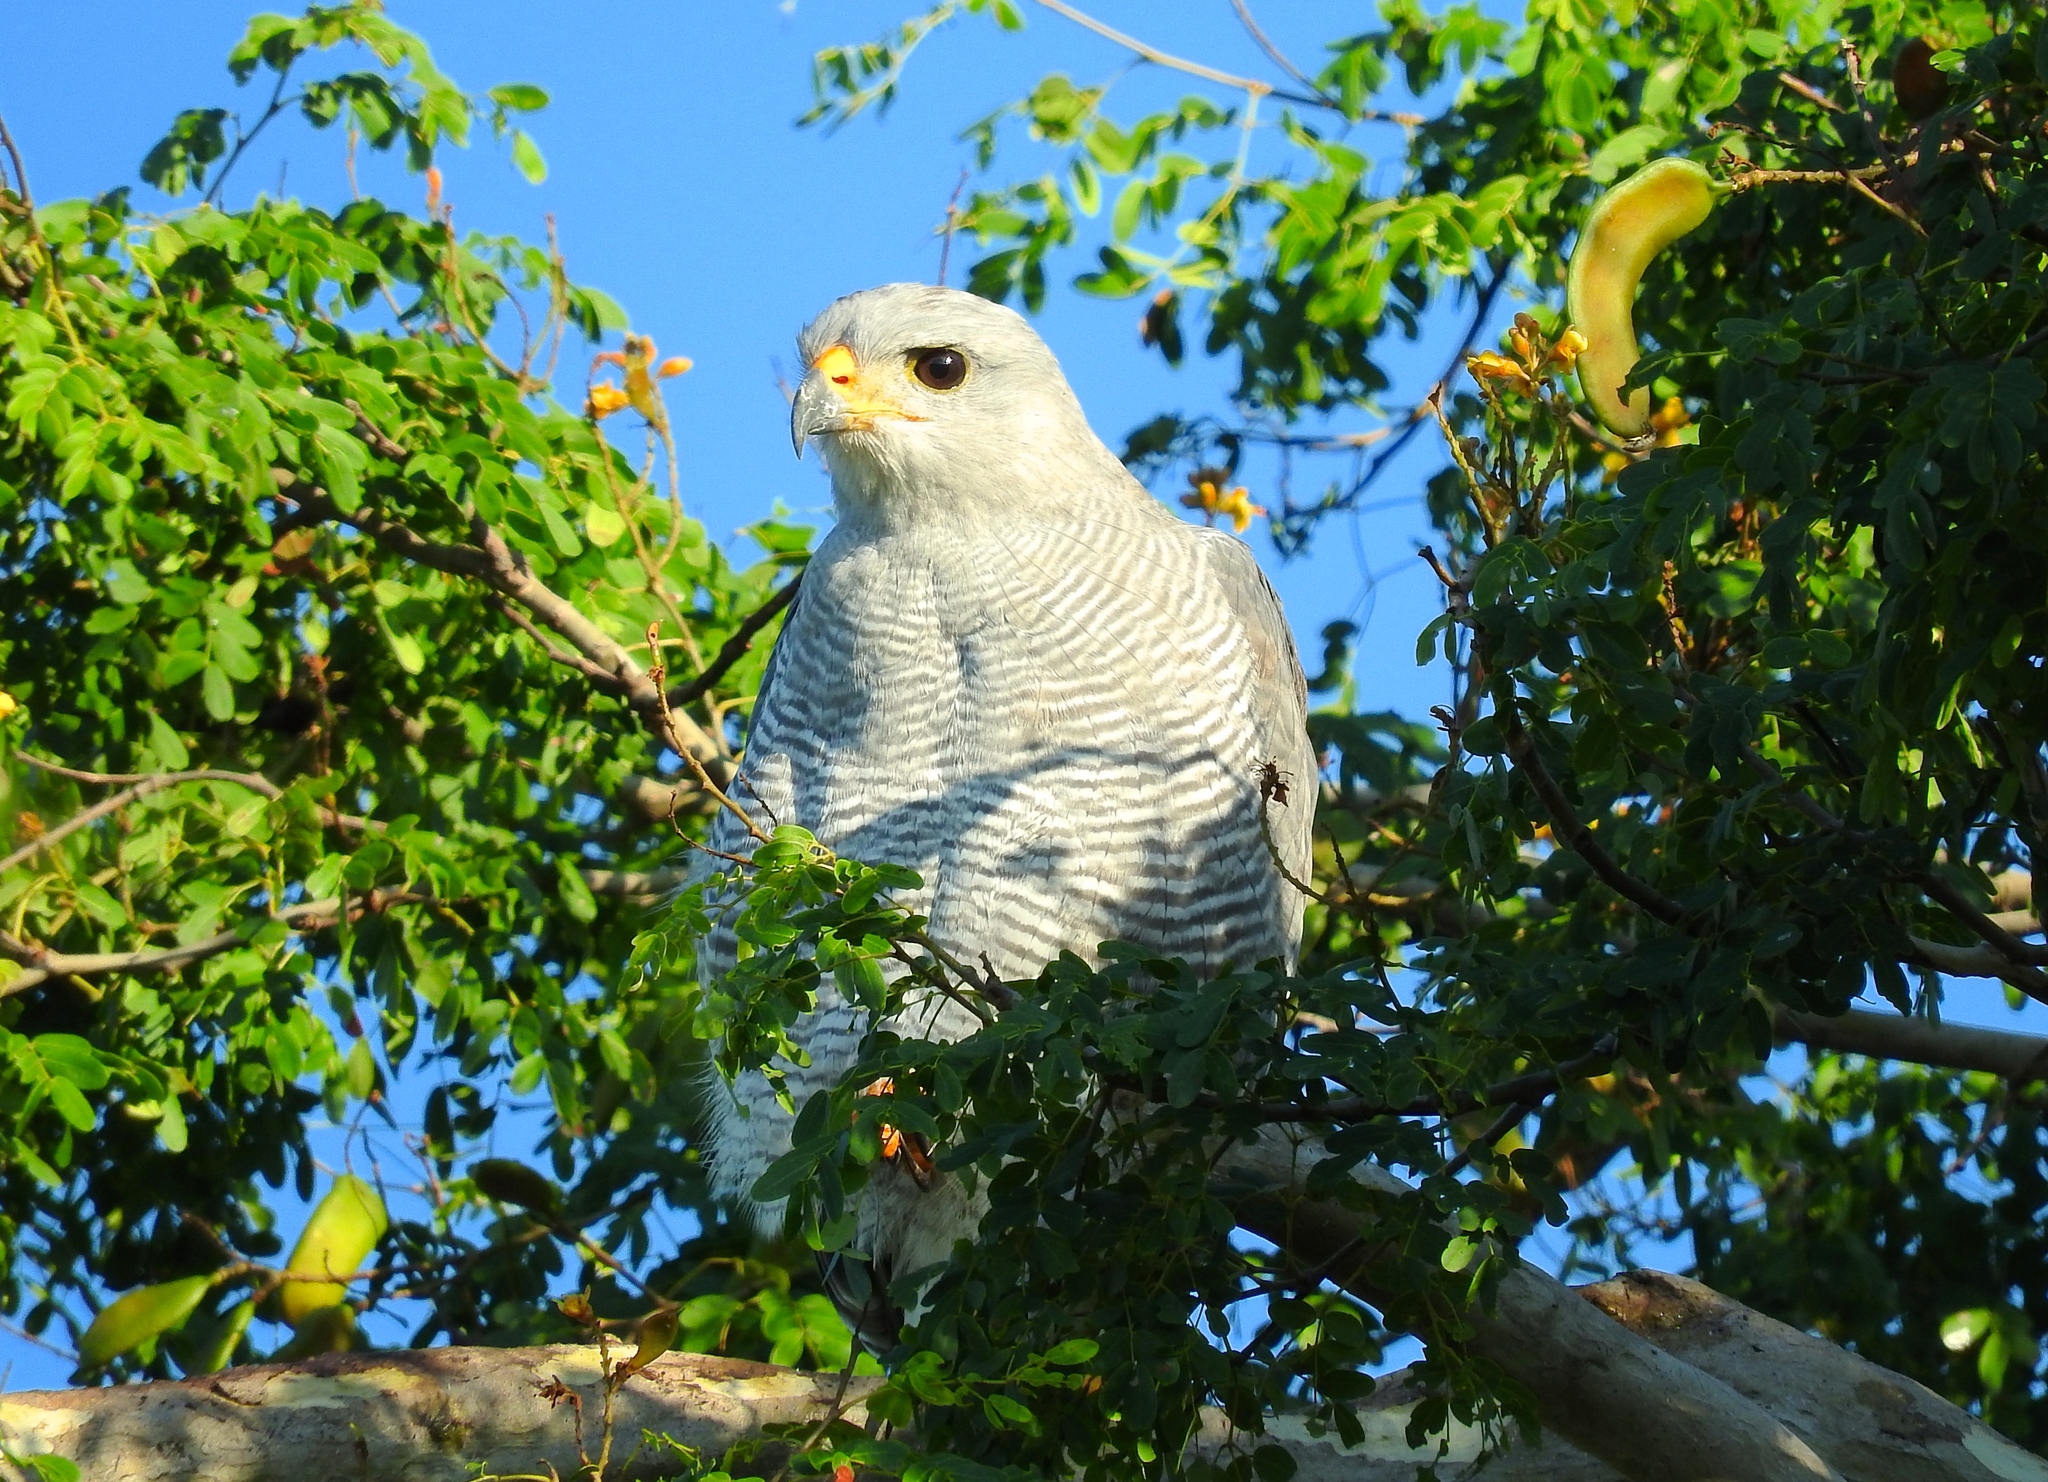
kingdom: Animalia
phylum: Chordata
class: Aves
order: Accipitriformes
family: Accipitridae
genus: Buteo
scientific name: Buteo nitidus
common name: Grey-lined hawk
